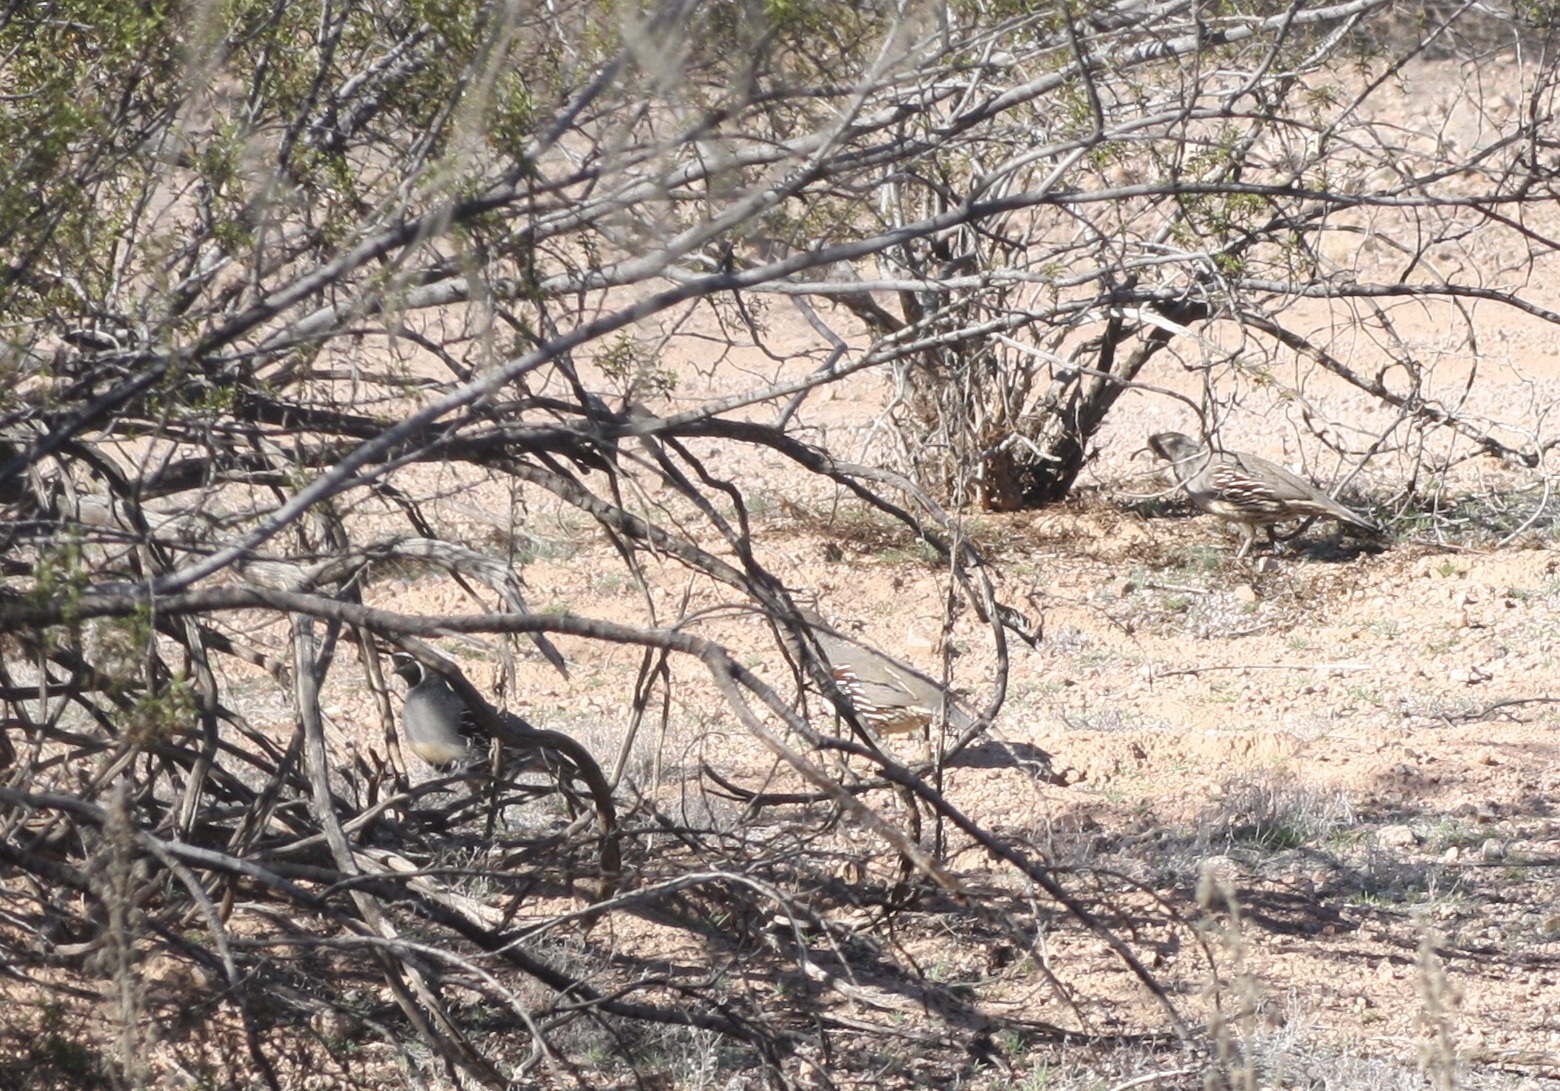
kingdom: Animalia
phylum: Chordata
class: Aves
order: Galliformes
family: Odontophoridae
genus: Callipepla
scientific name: Callipepla gambelii
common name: Gambel's quail
